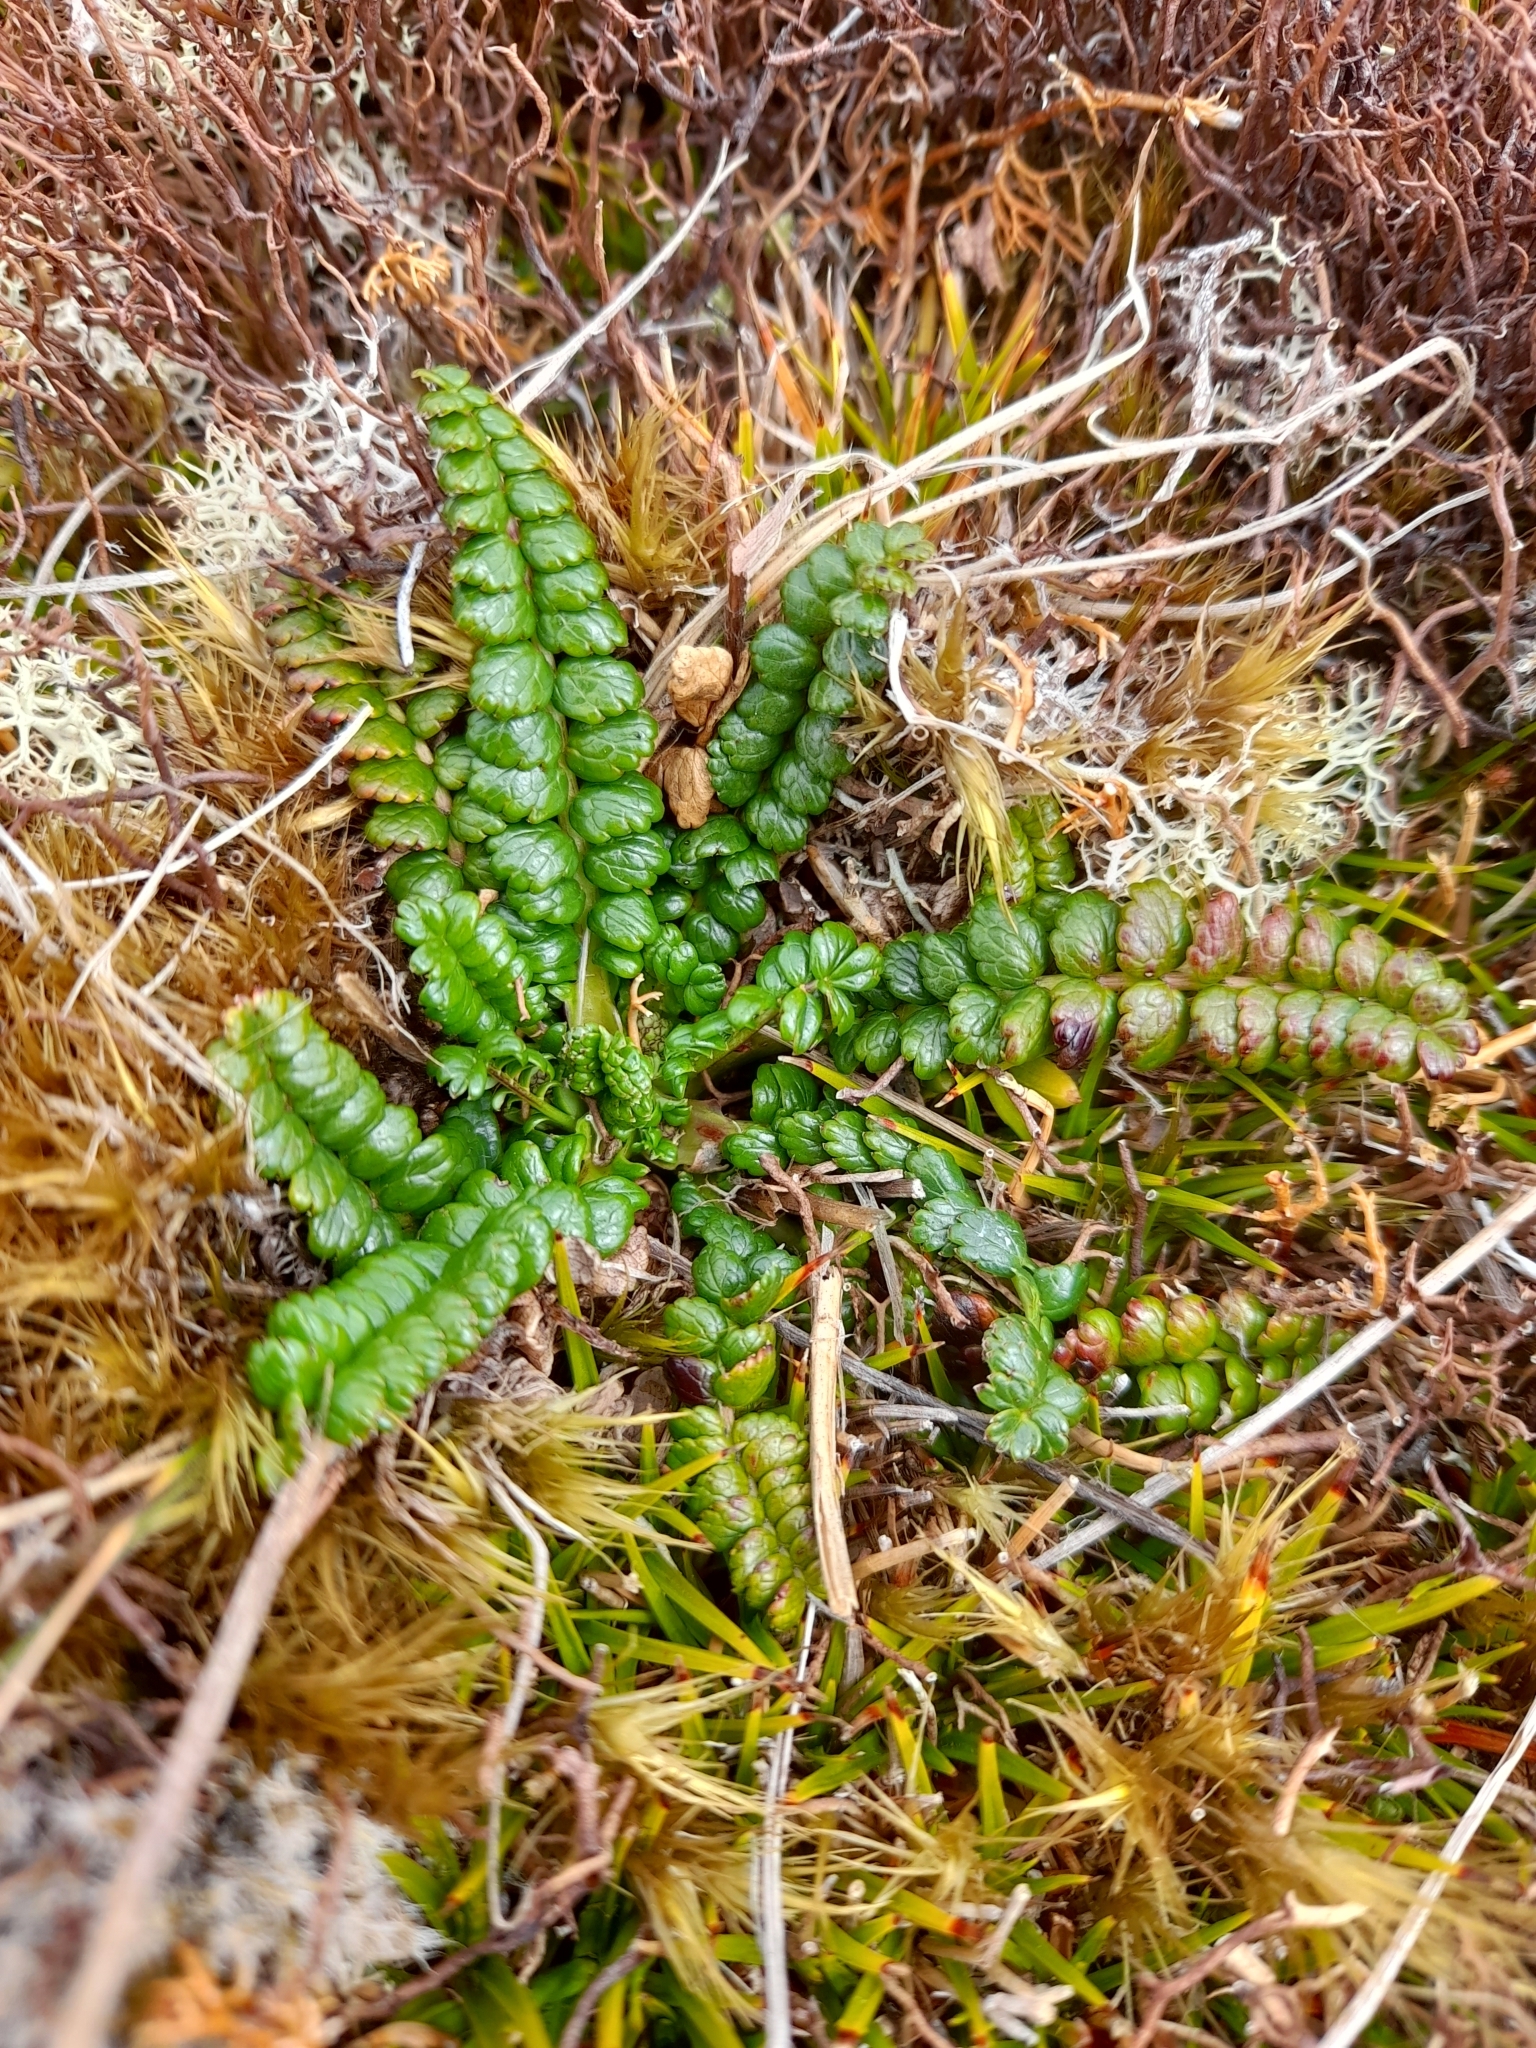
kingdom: Plantae
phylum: Tracheophyta
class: Magnoliopsida
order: Rosales
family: Rosaceae
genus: Acaena
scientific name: Acaena pumila
